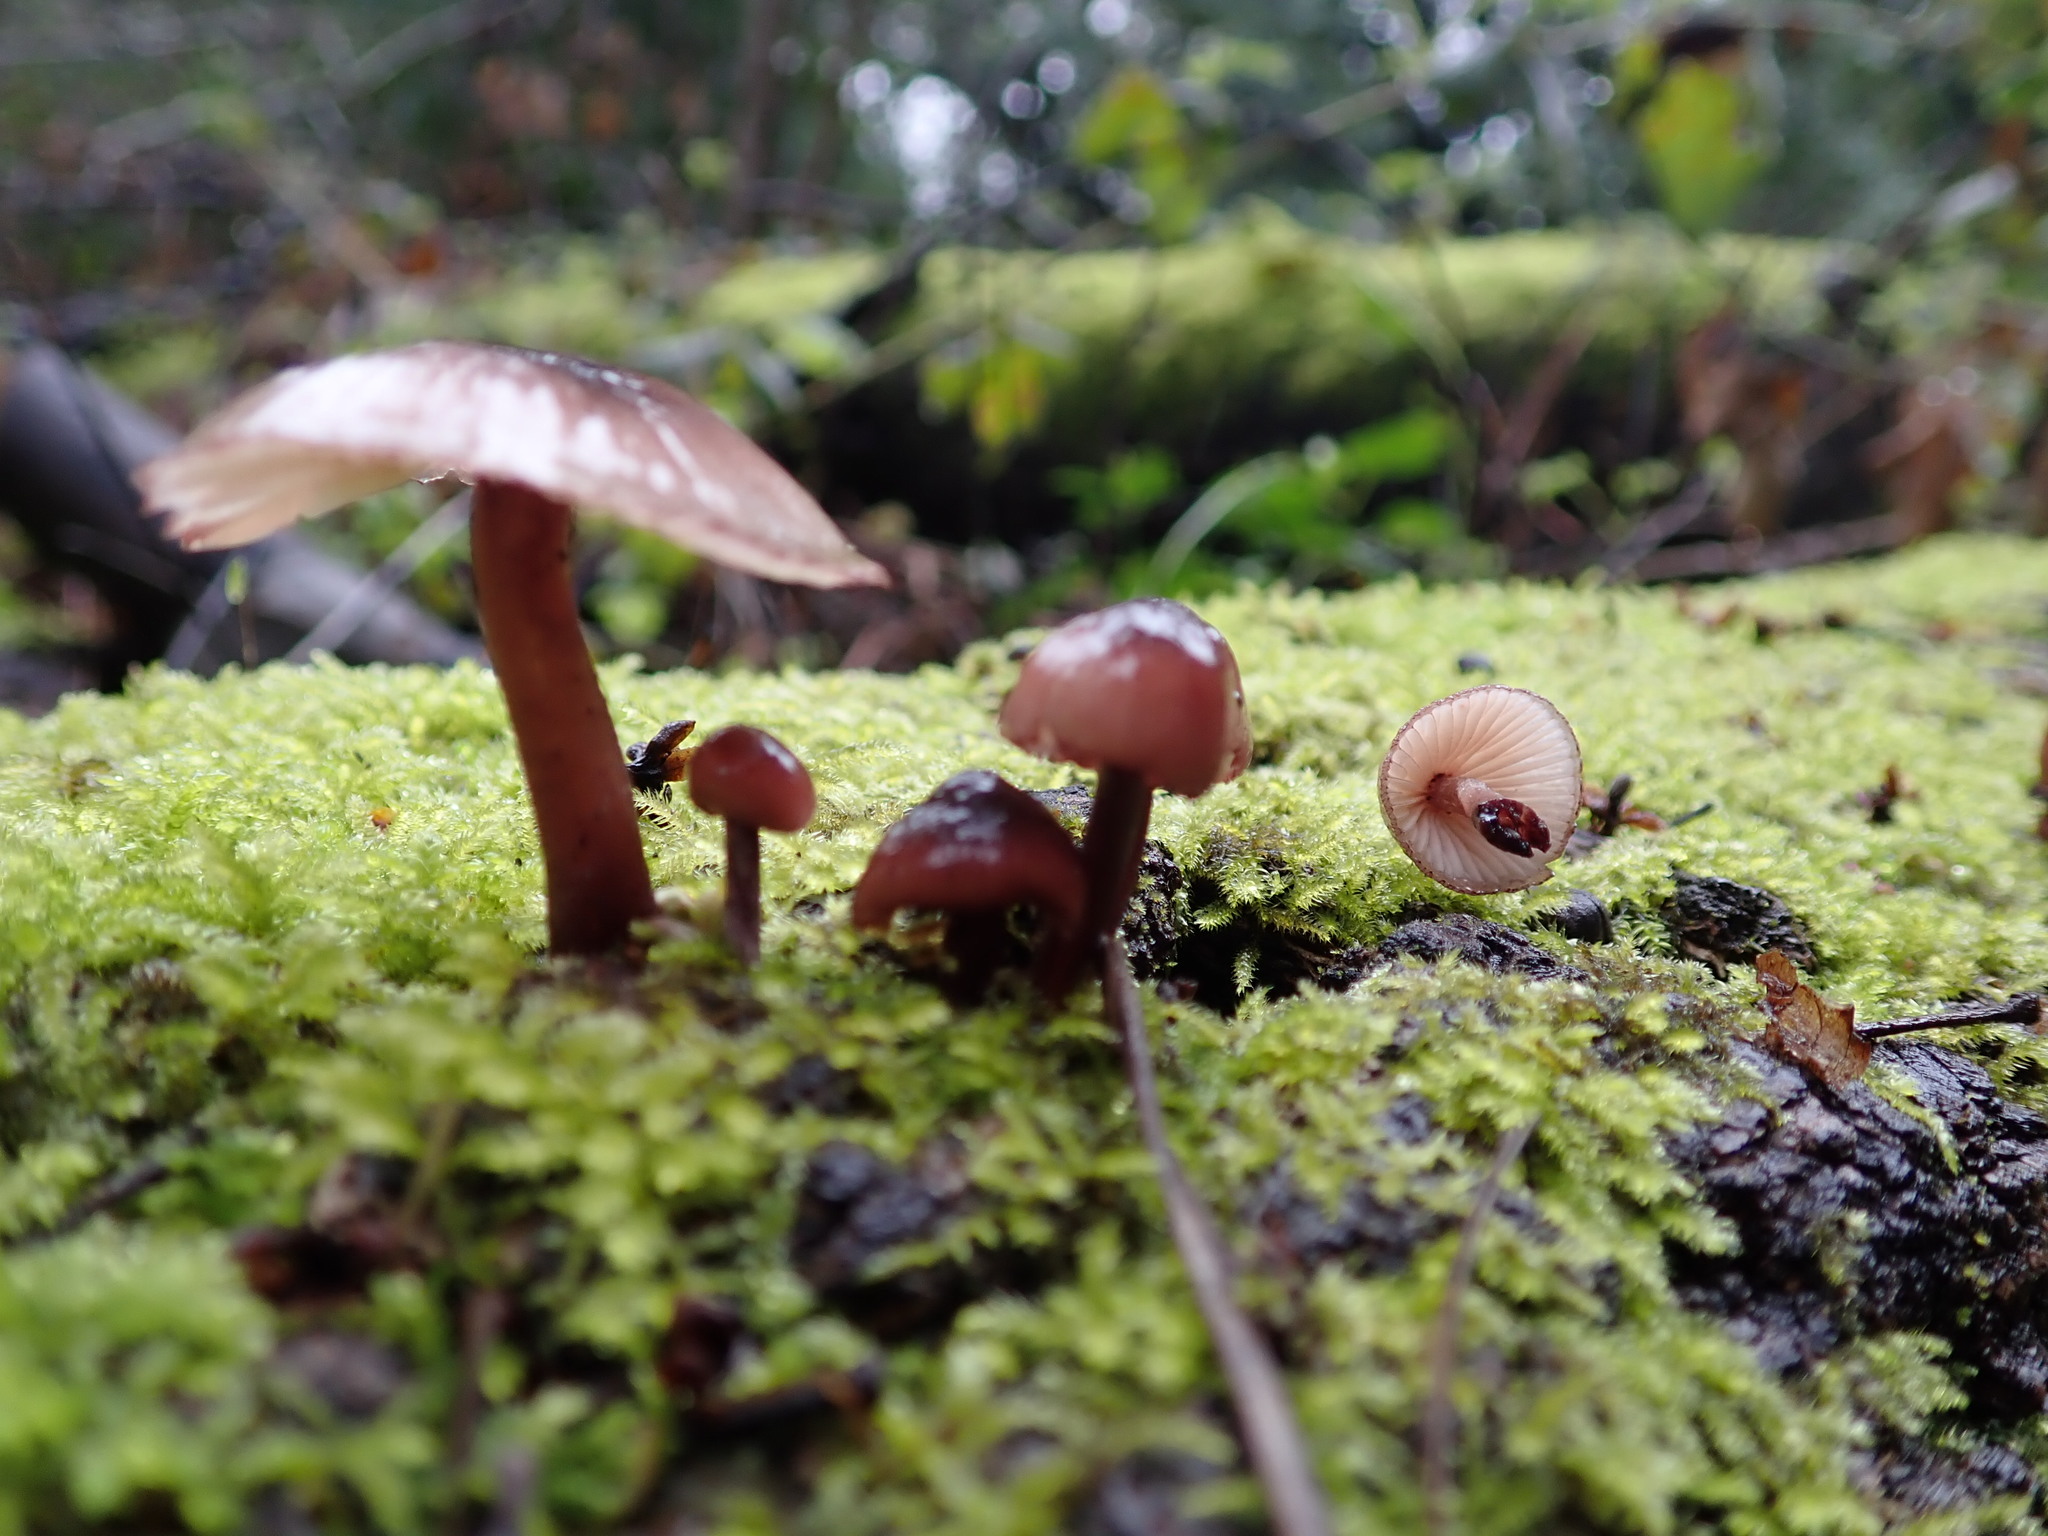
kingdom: Fungi
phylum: Basidiomycota
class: Agaricomycetes
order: Agaricales
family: Mycenaceae
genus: Mycena
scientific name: Mycena haematopus
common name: Burgundydrop bonnet
